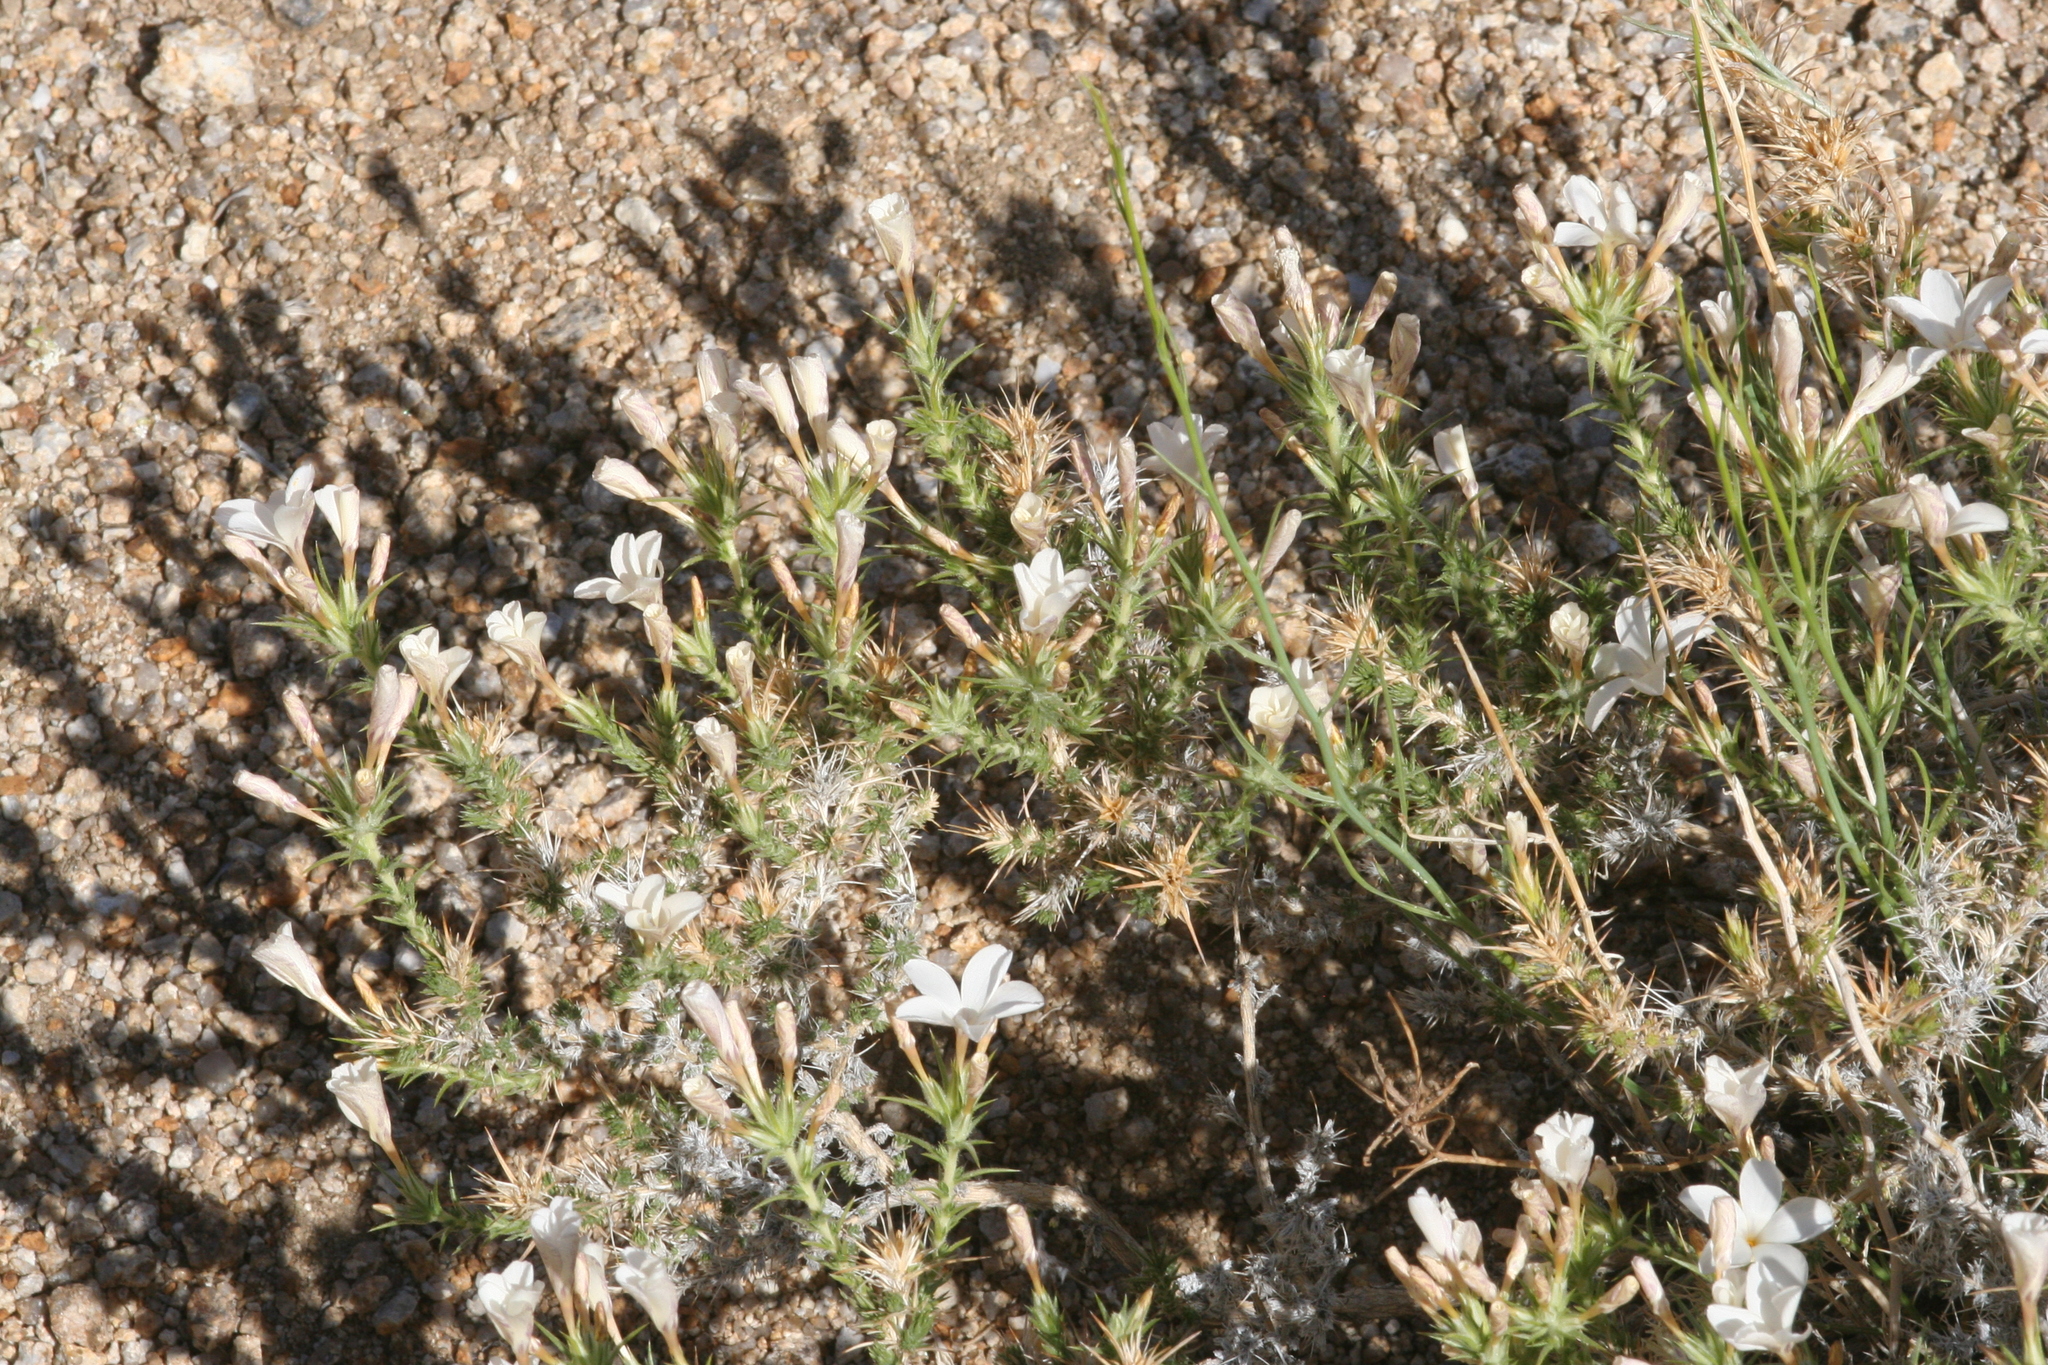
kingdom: Plantae
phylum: Tracheophyta
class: Magnoliopsida
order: Ericales
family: Polemoniaceae
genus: Linanthus
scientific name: Linanthus pungens
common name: Granite prickly phlox
